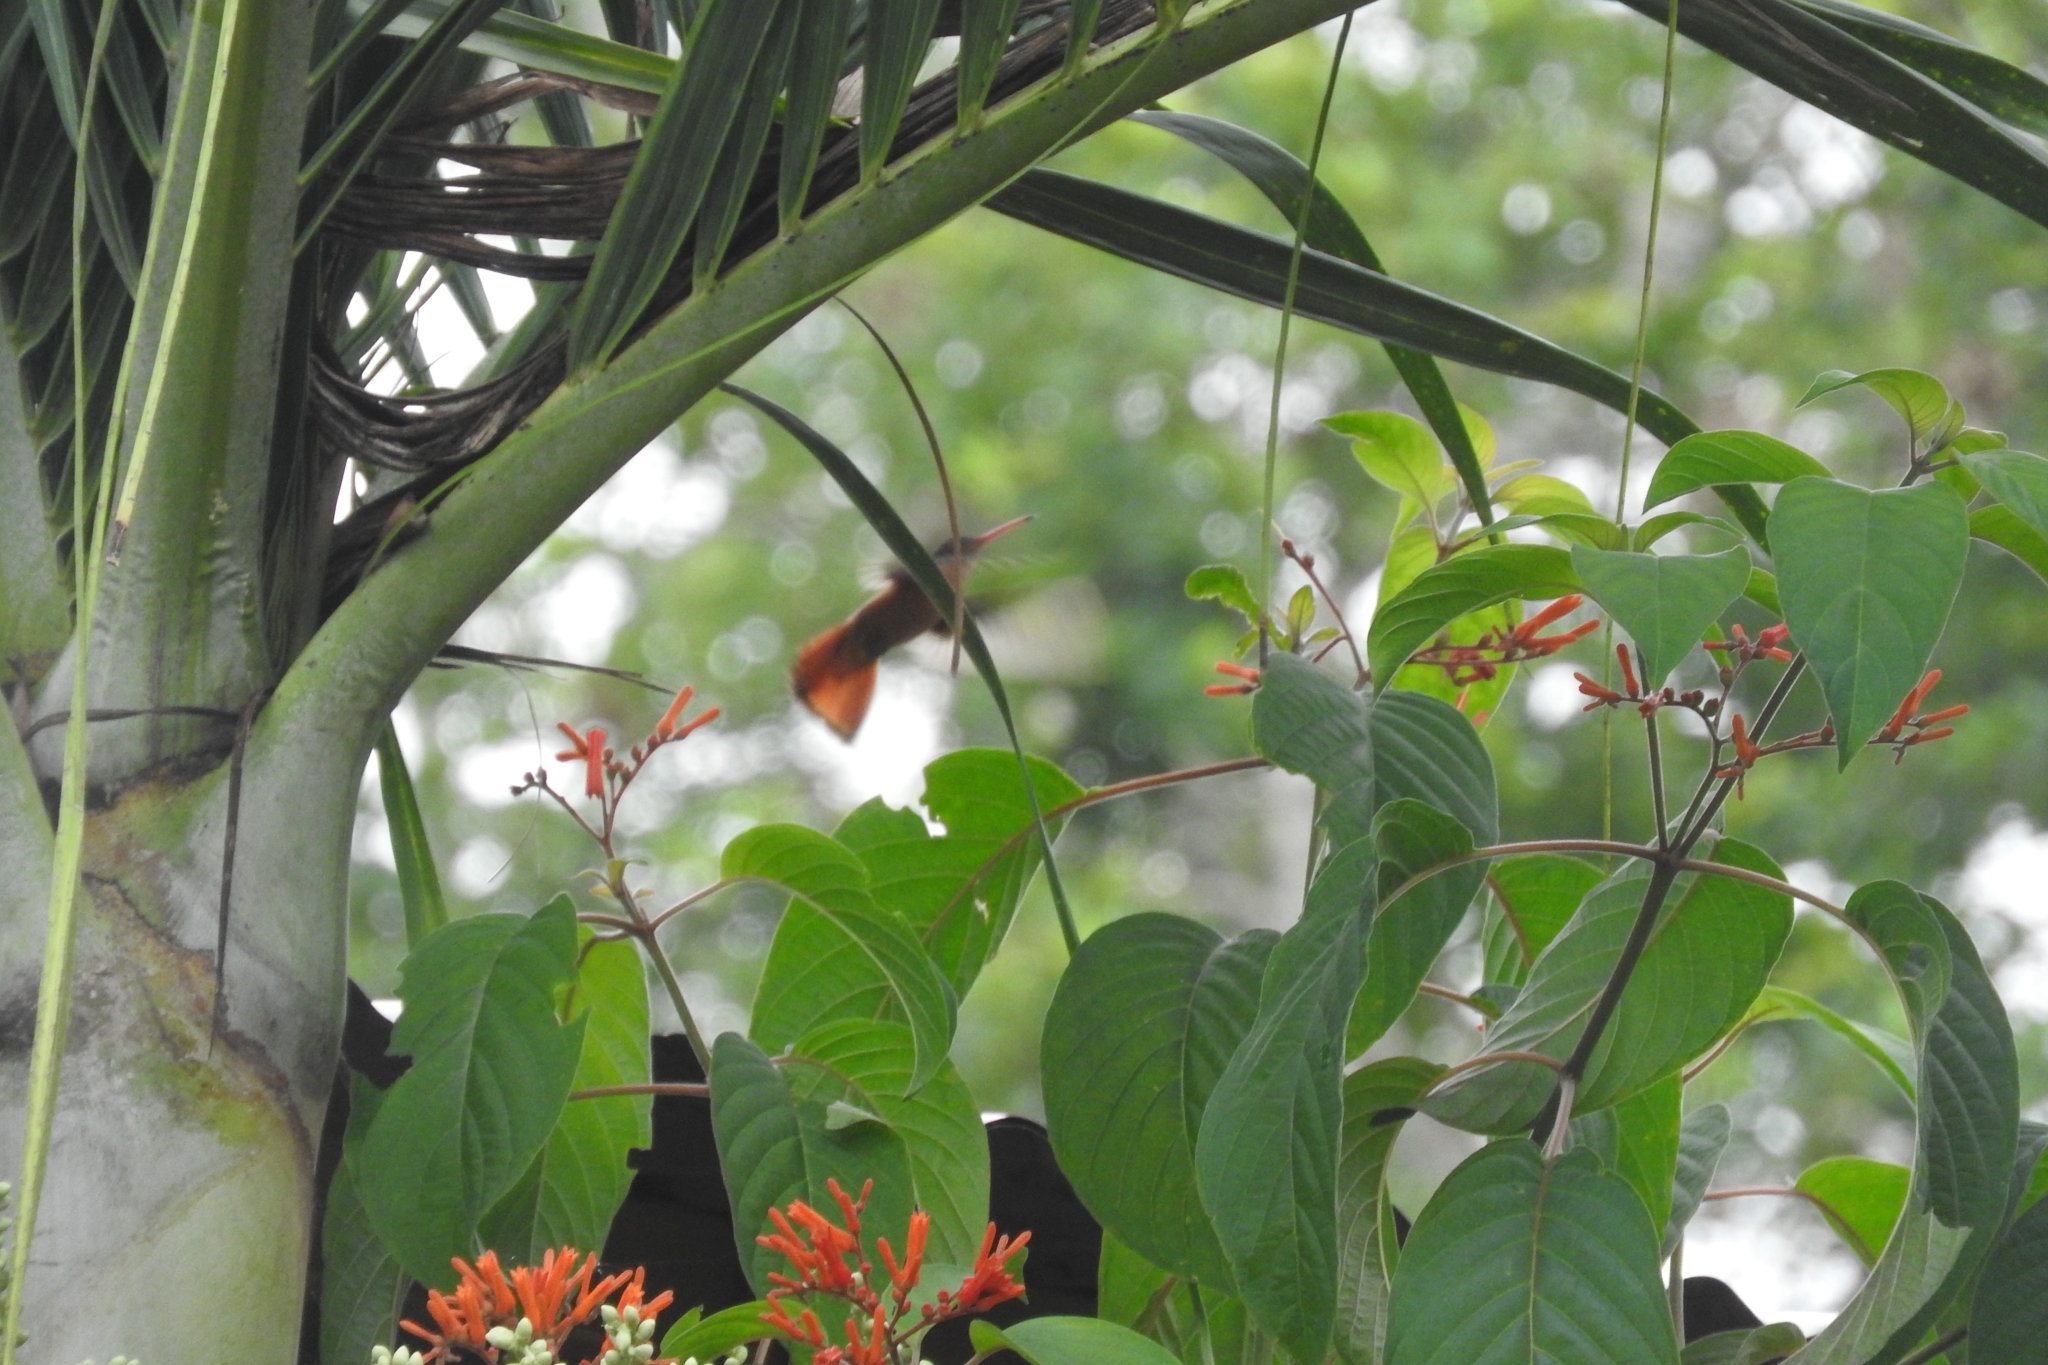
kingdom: Animalia
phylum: Chordata
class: Aves
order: Apodiformes
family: Trochilidae
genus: Amazilia
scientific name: Amazilia rutila
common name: Cinnamon hummingbird
